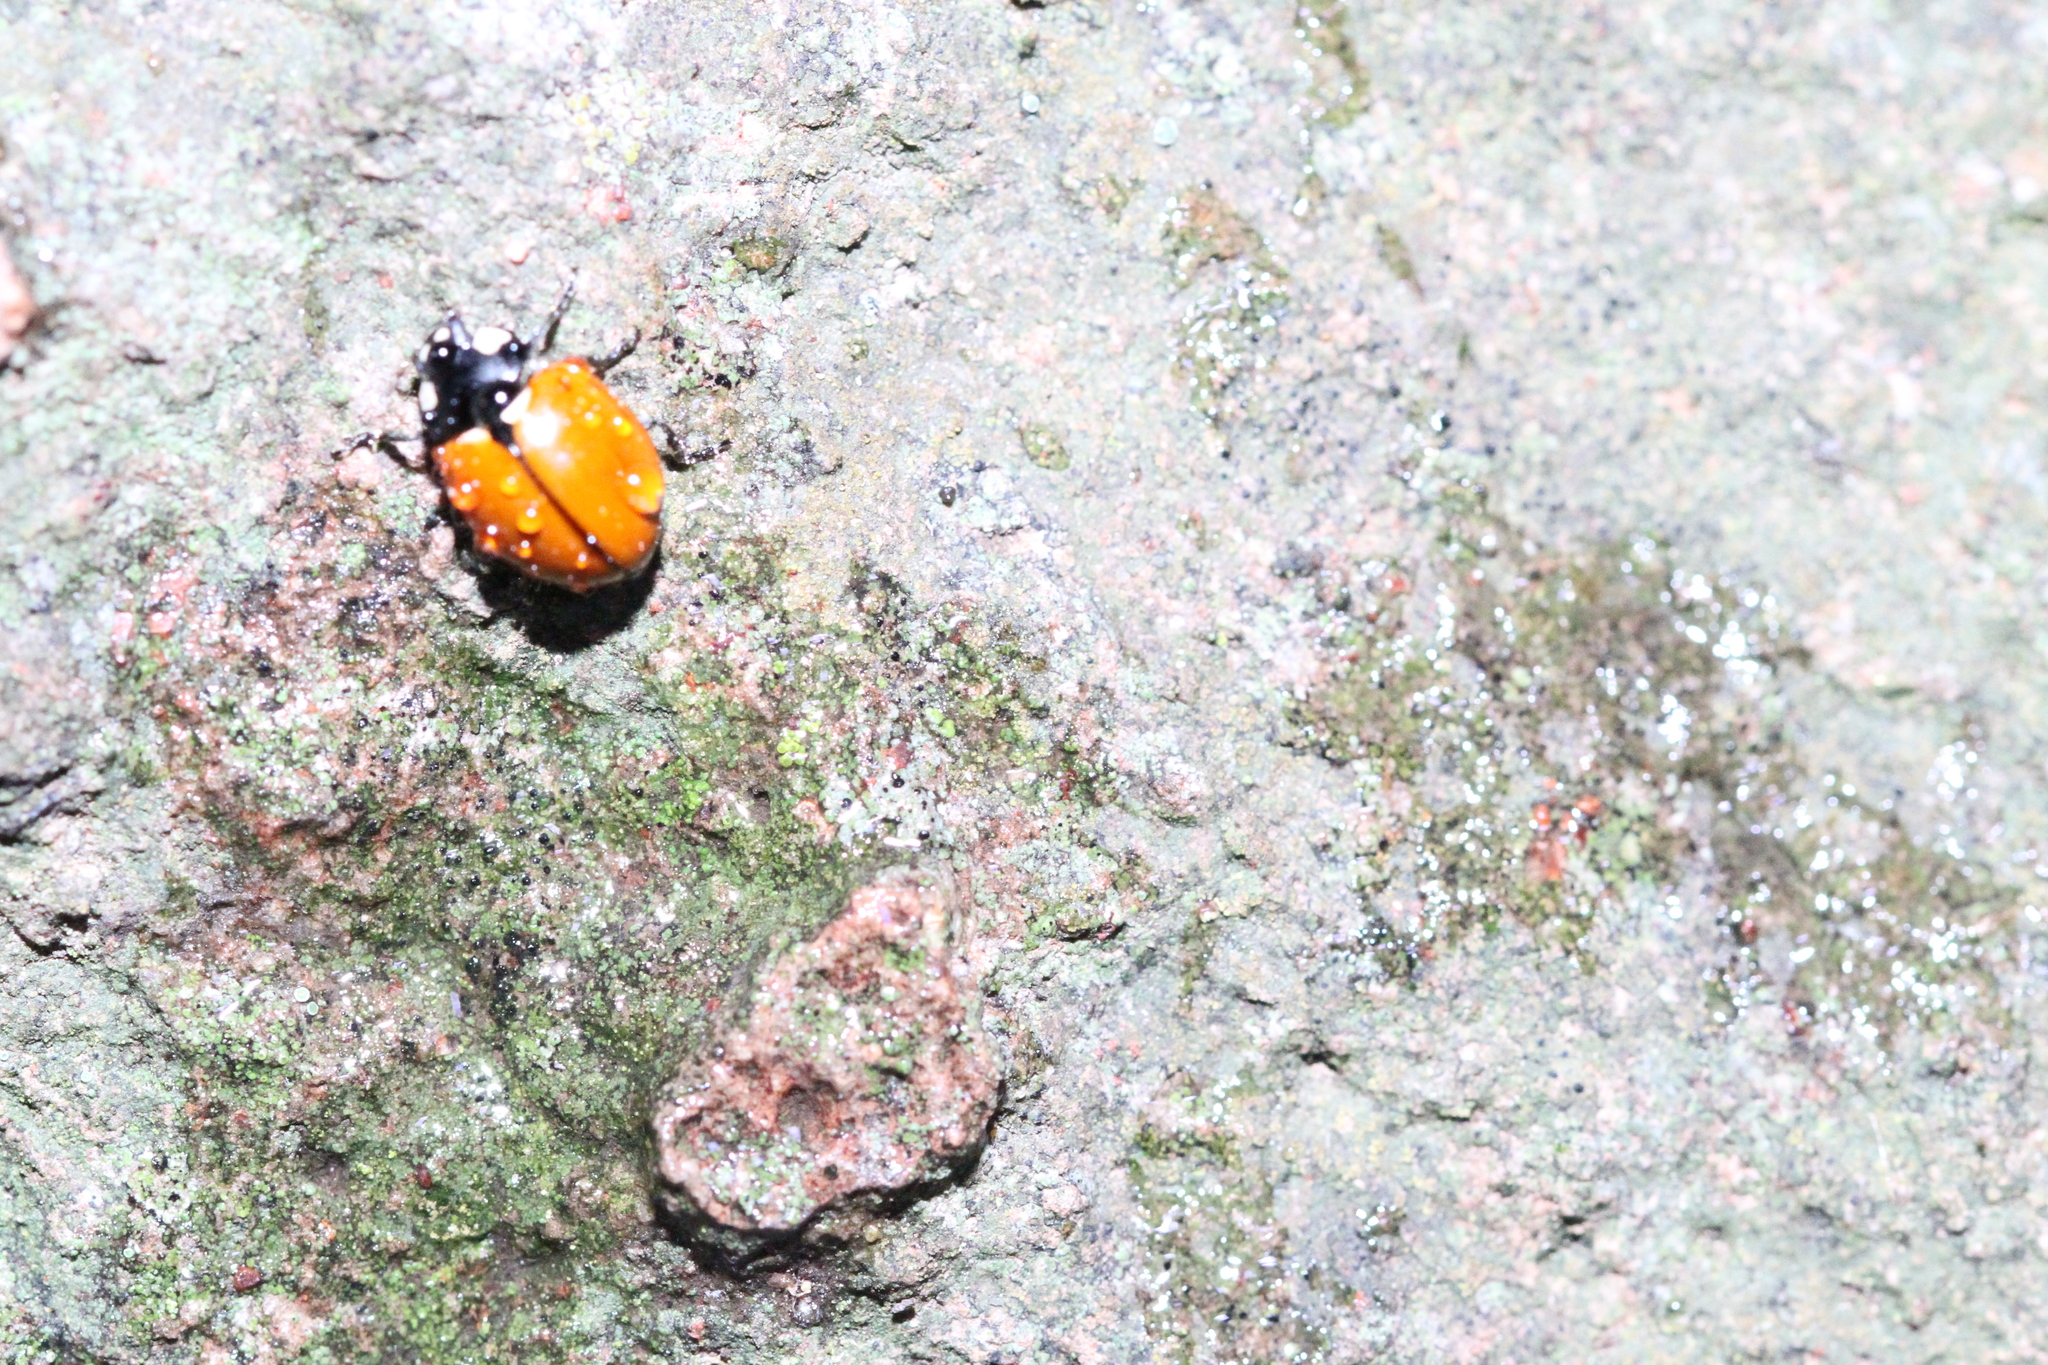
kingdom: Animalia
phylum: Arthropoda
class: Insecta
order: Coleoptera
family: Coccinellidae
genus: Coccinella
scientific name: Coccinella californica
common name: Lady beetle
